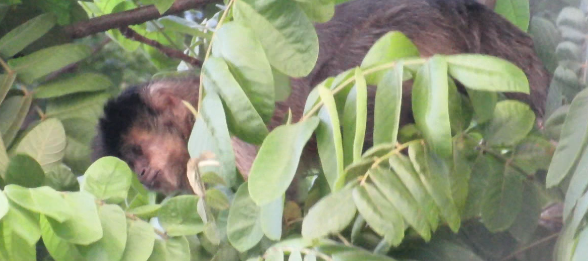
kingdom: Animalia
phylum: Chordata
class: Mammalia
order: Primates
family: Cebidae
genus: Sapajus
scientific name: Sapajus nigritus
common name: Black capuchin
